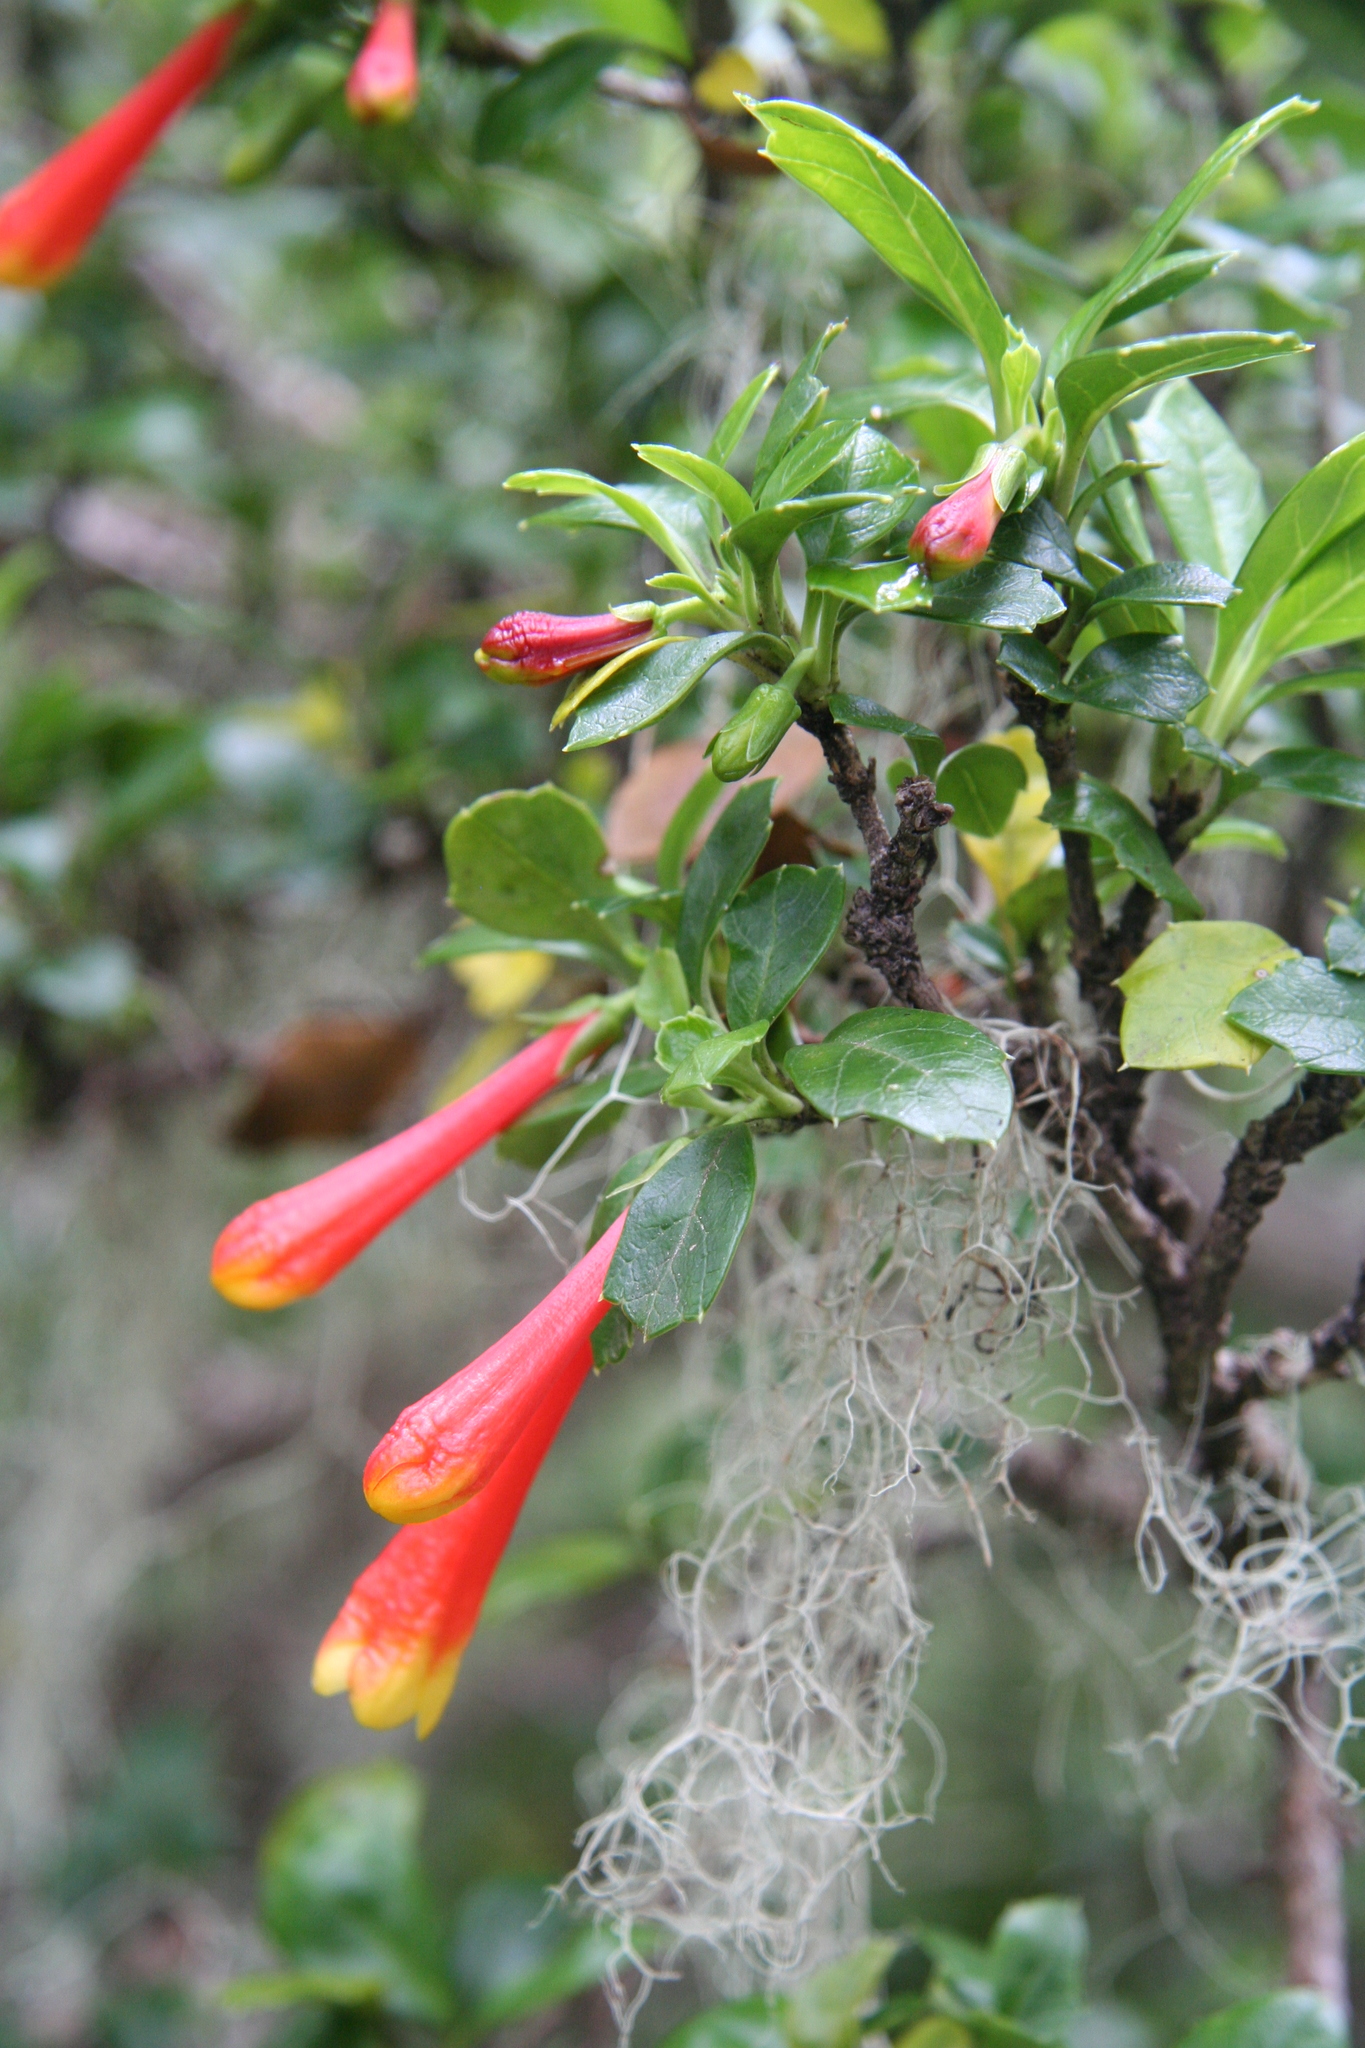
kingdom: Plantae
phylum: Tracheophyta
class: Magnoliopsida
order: Bruniales
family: Columelliaceae
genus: Desfontainia
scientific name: Desfontainia fulgens
